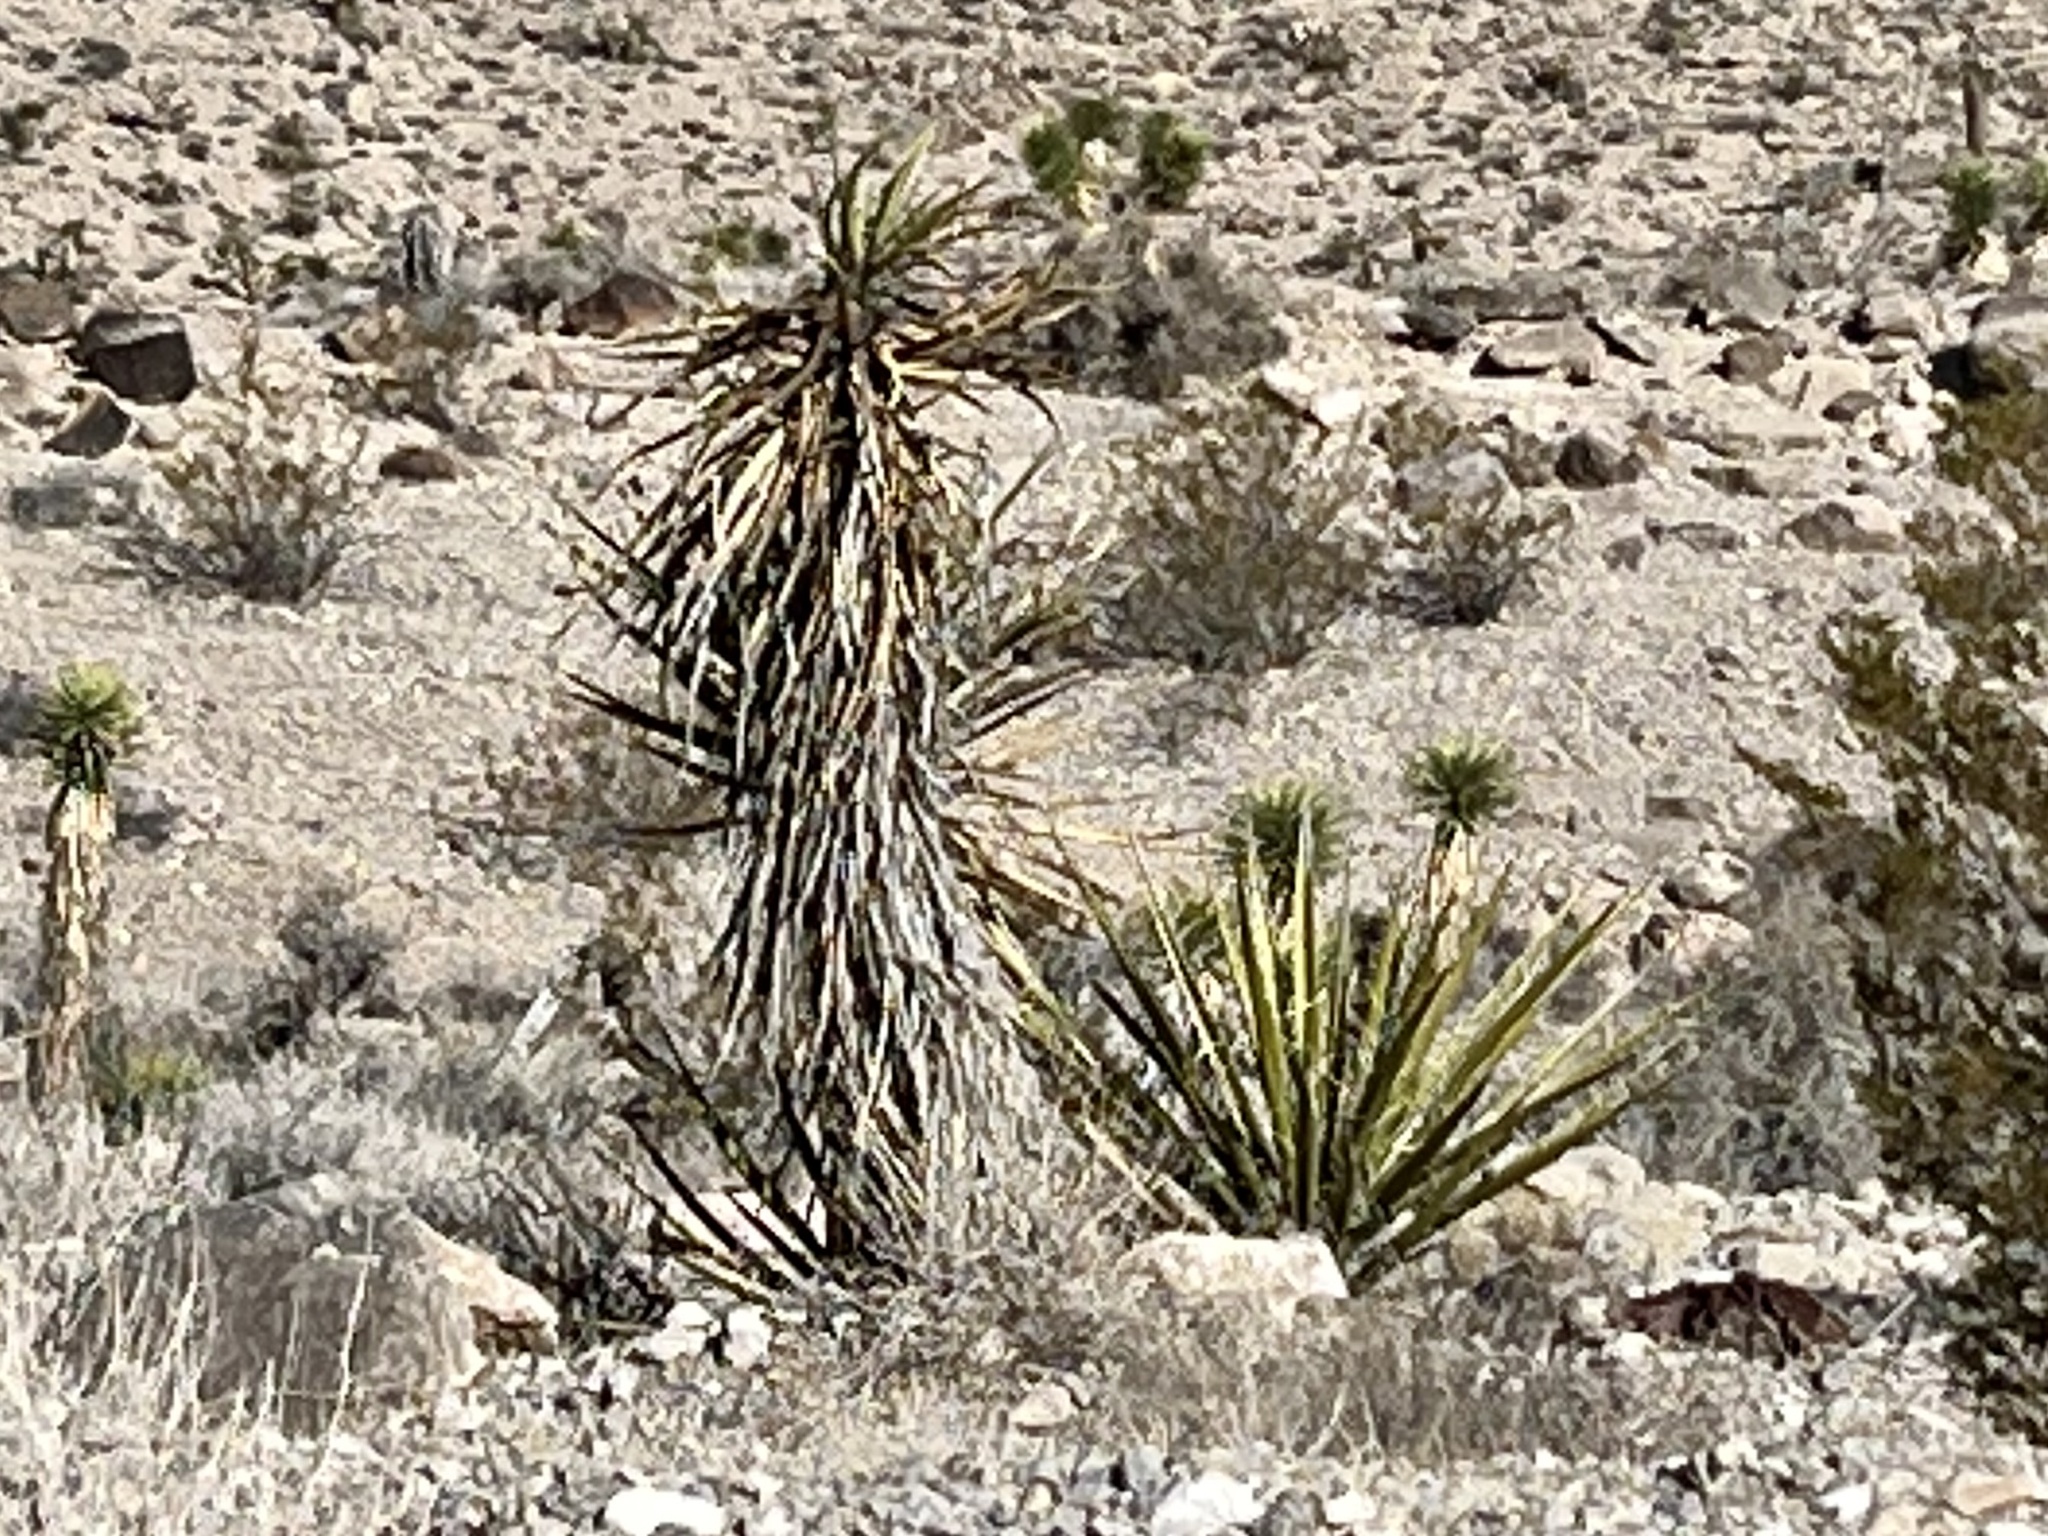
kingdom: Plantae
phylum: Tracheophyta
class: Liliopsida
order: Asparagales
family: Asparagaceae
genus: Yucca
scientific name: Yucca schidigera
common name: Mojave yucca
